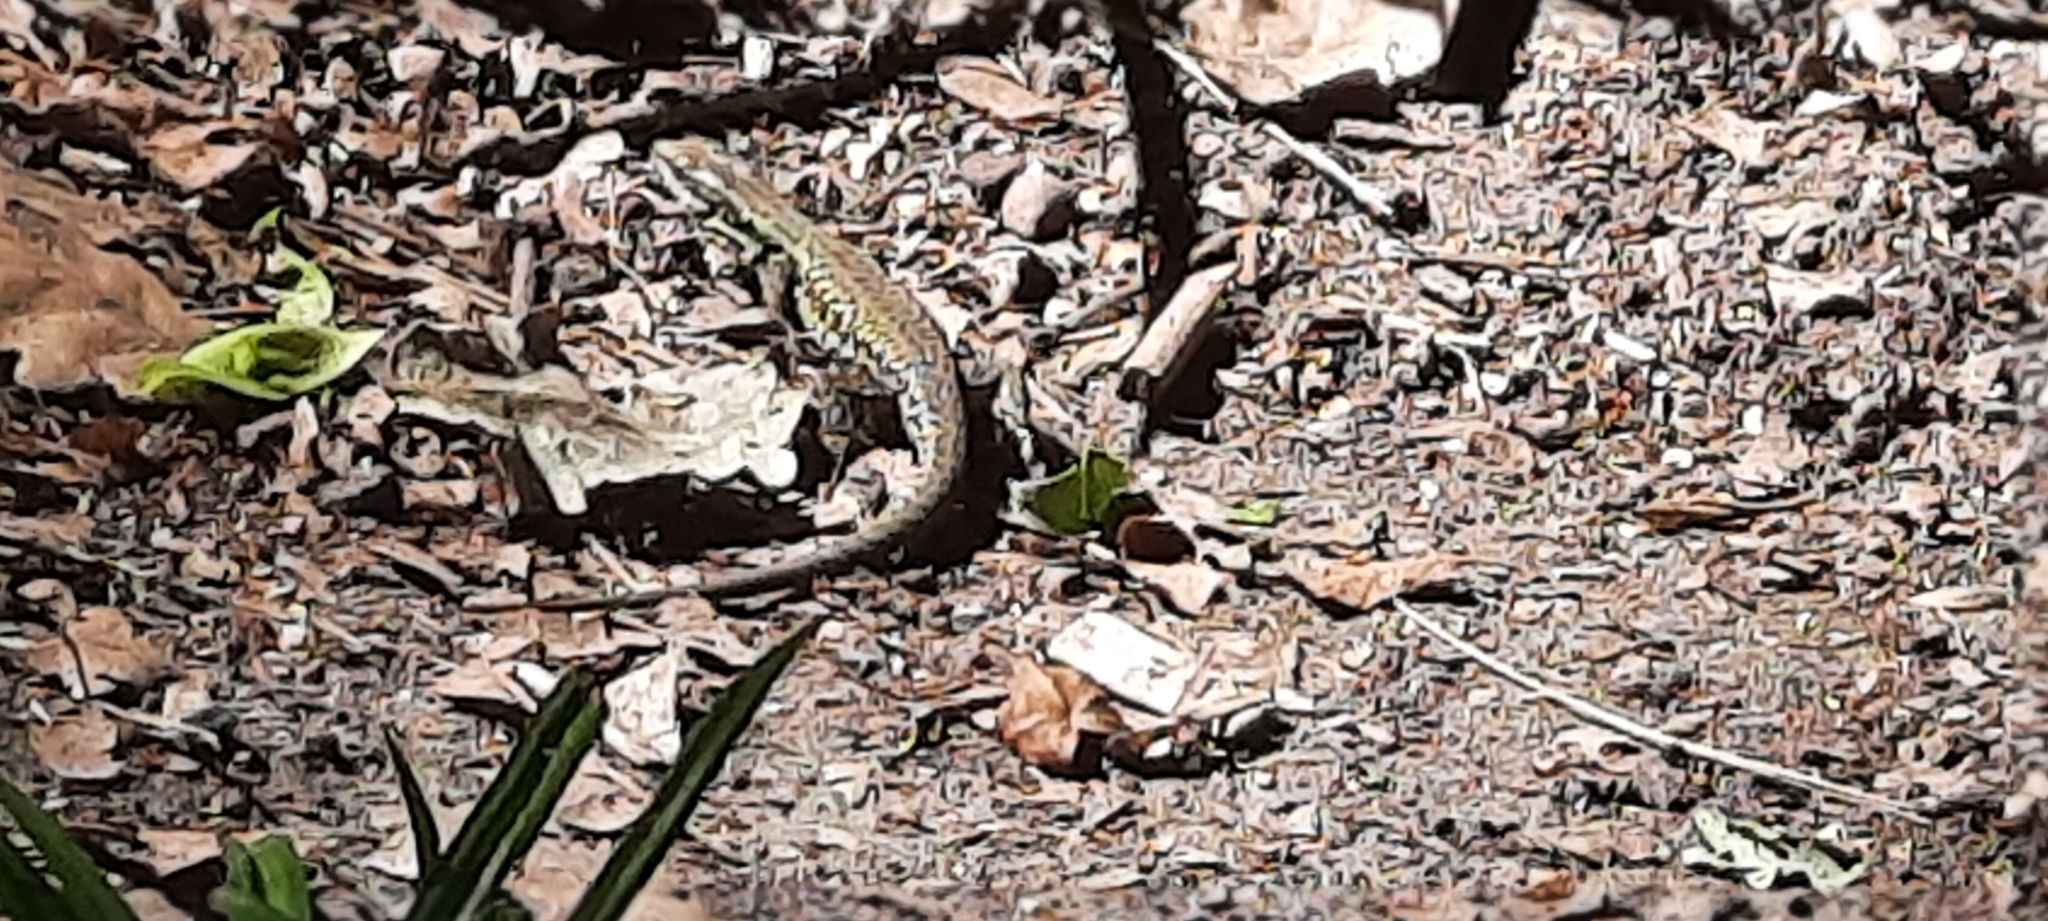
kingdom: Animalia
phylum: Chordata
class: Squamata
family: Lacertidae
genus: Podarcis
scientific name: Podarcis muralis
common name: Common wall lizard
